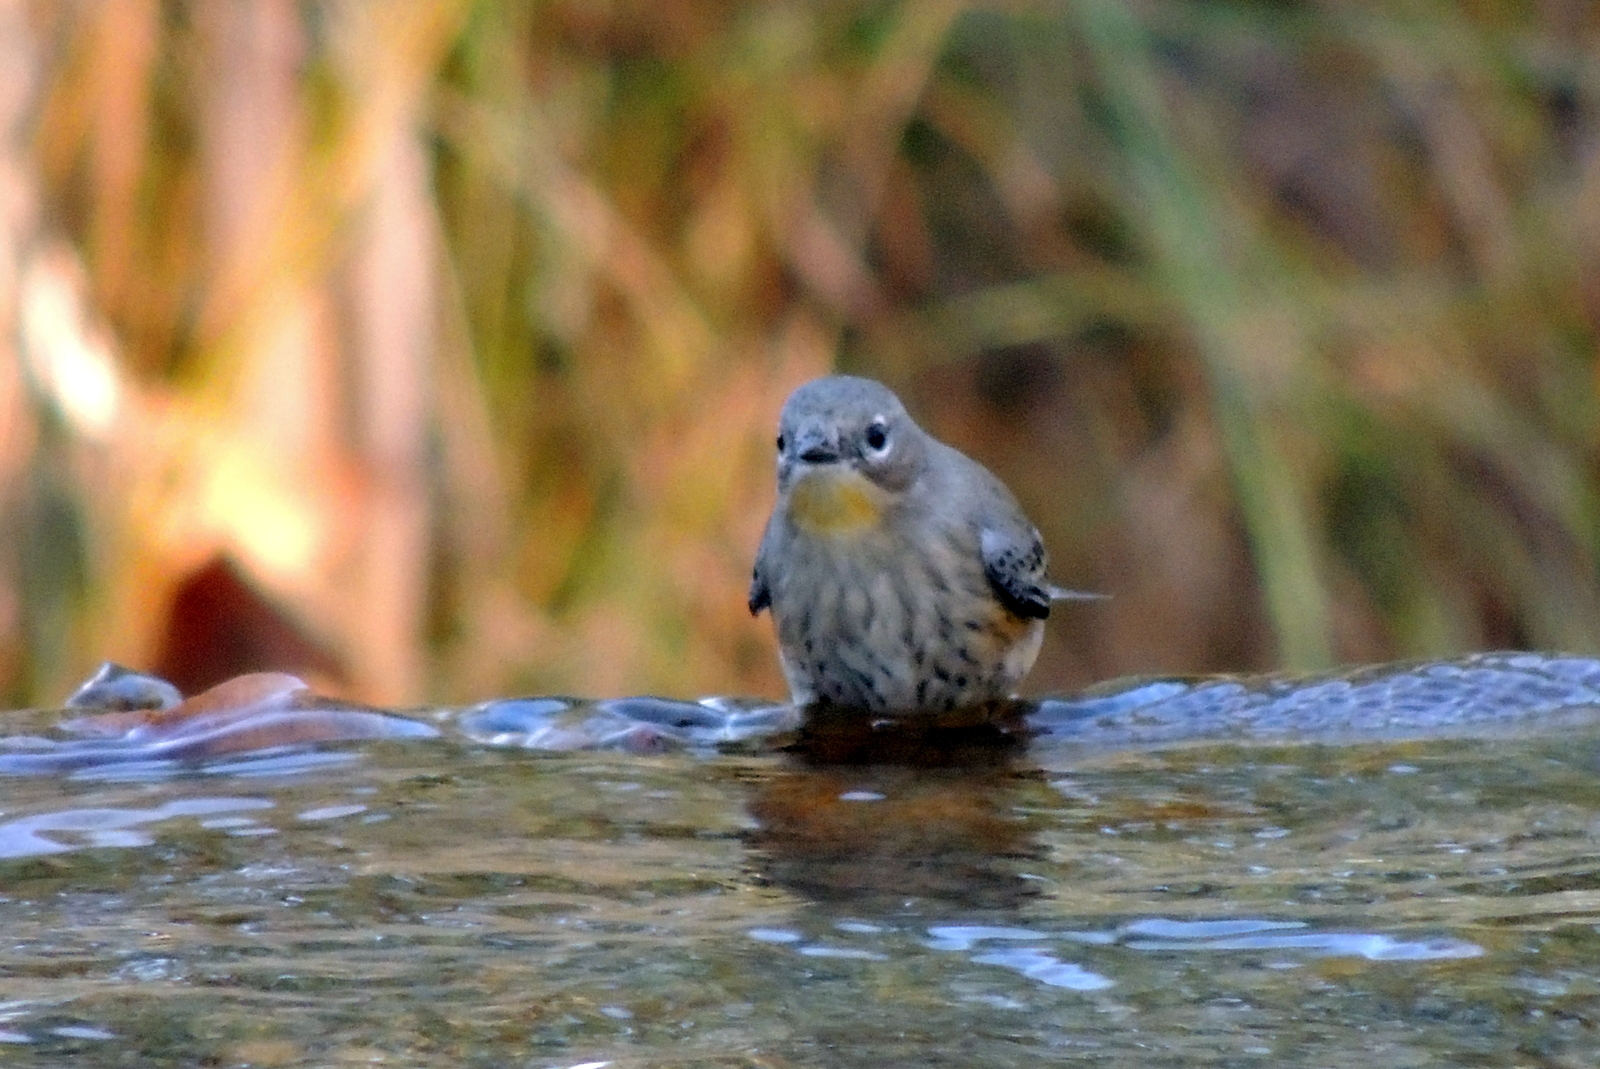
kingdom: Animalia
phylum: Chordata
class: Aves
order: Passeriformes
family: Parulidae
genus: Setophaga
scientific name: Setophaga coronata
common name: Myrtle warbler
